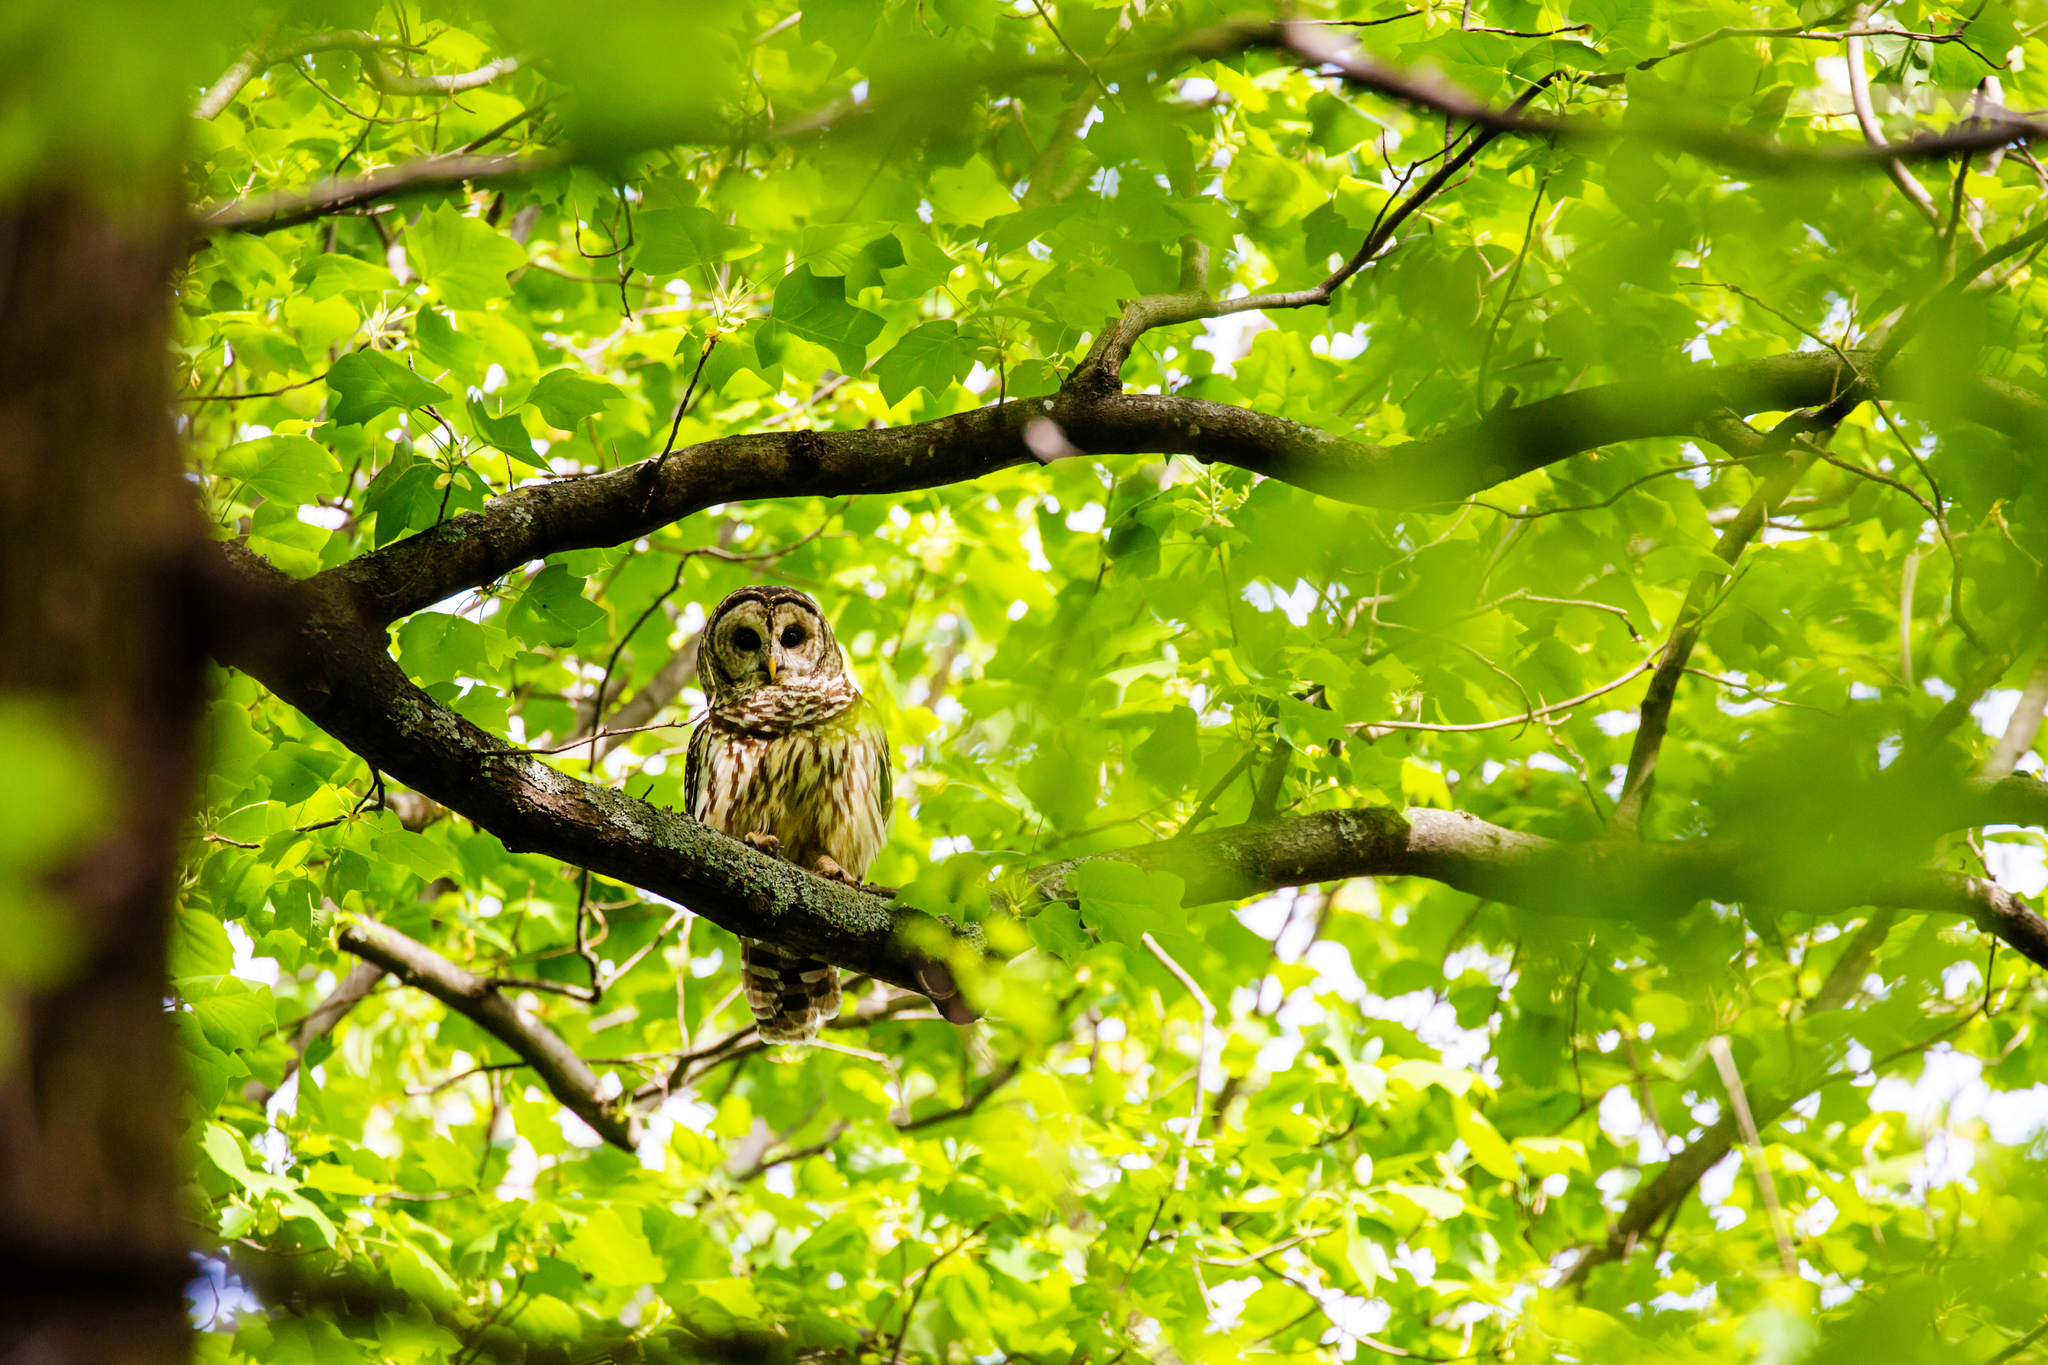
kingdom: Animalia
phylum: Chordata
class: Aves
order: Strigiformes
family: Strigidae
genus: Strix
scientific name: Strix varia
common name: Barred owl
